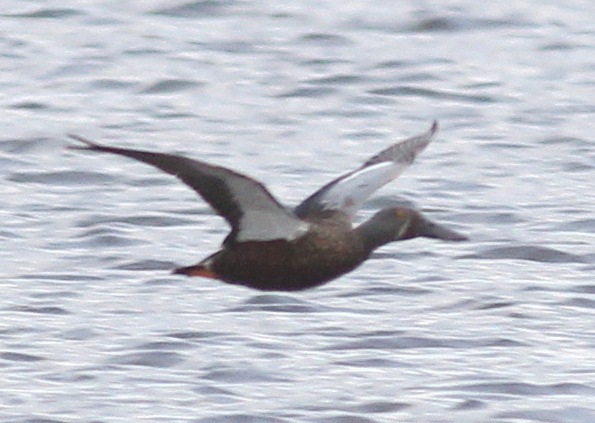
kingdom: Animalia
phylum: Chordata
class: Aves
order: Anseriformes
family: Anatidae
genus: Spatula
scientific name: Spatula rhynchotis
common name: Australian shoveler
